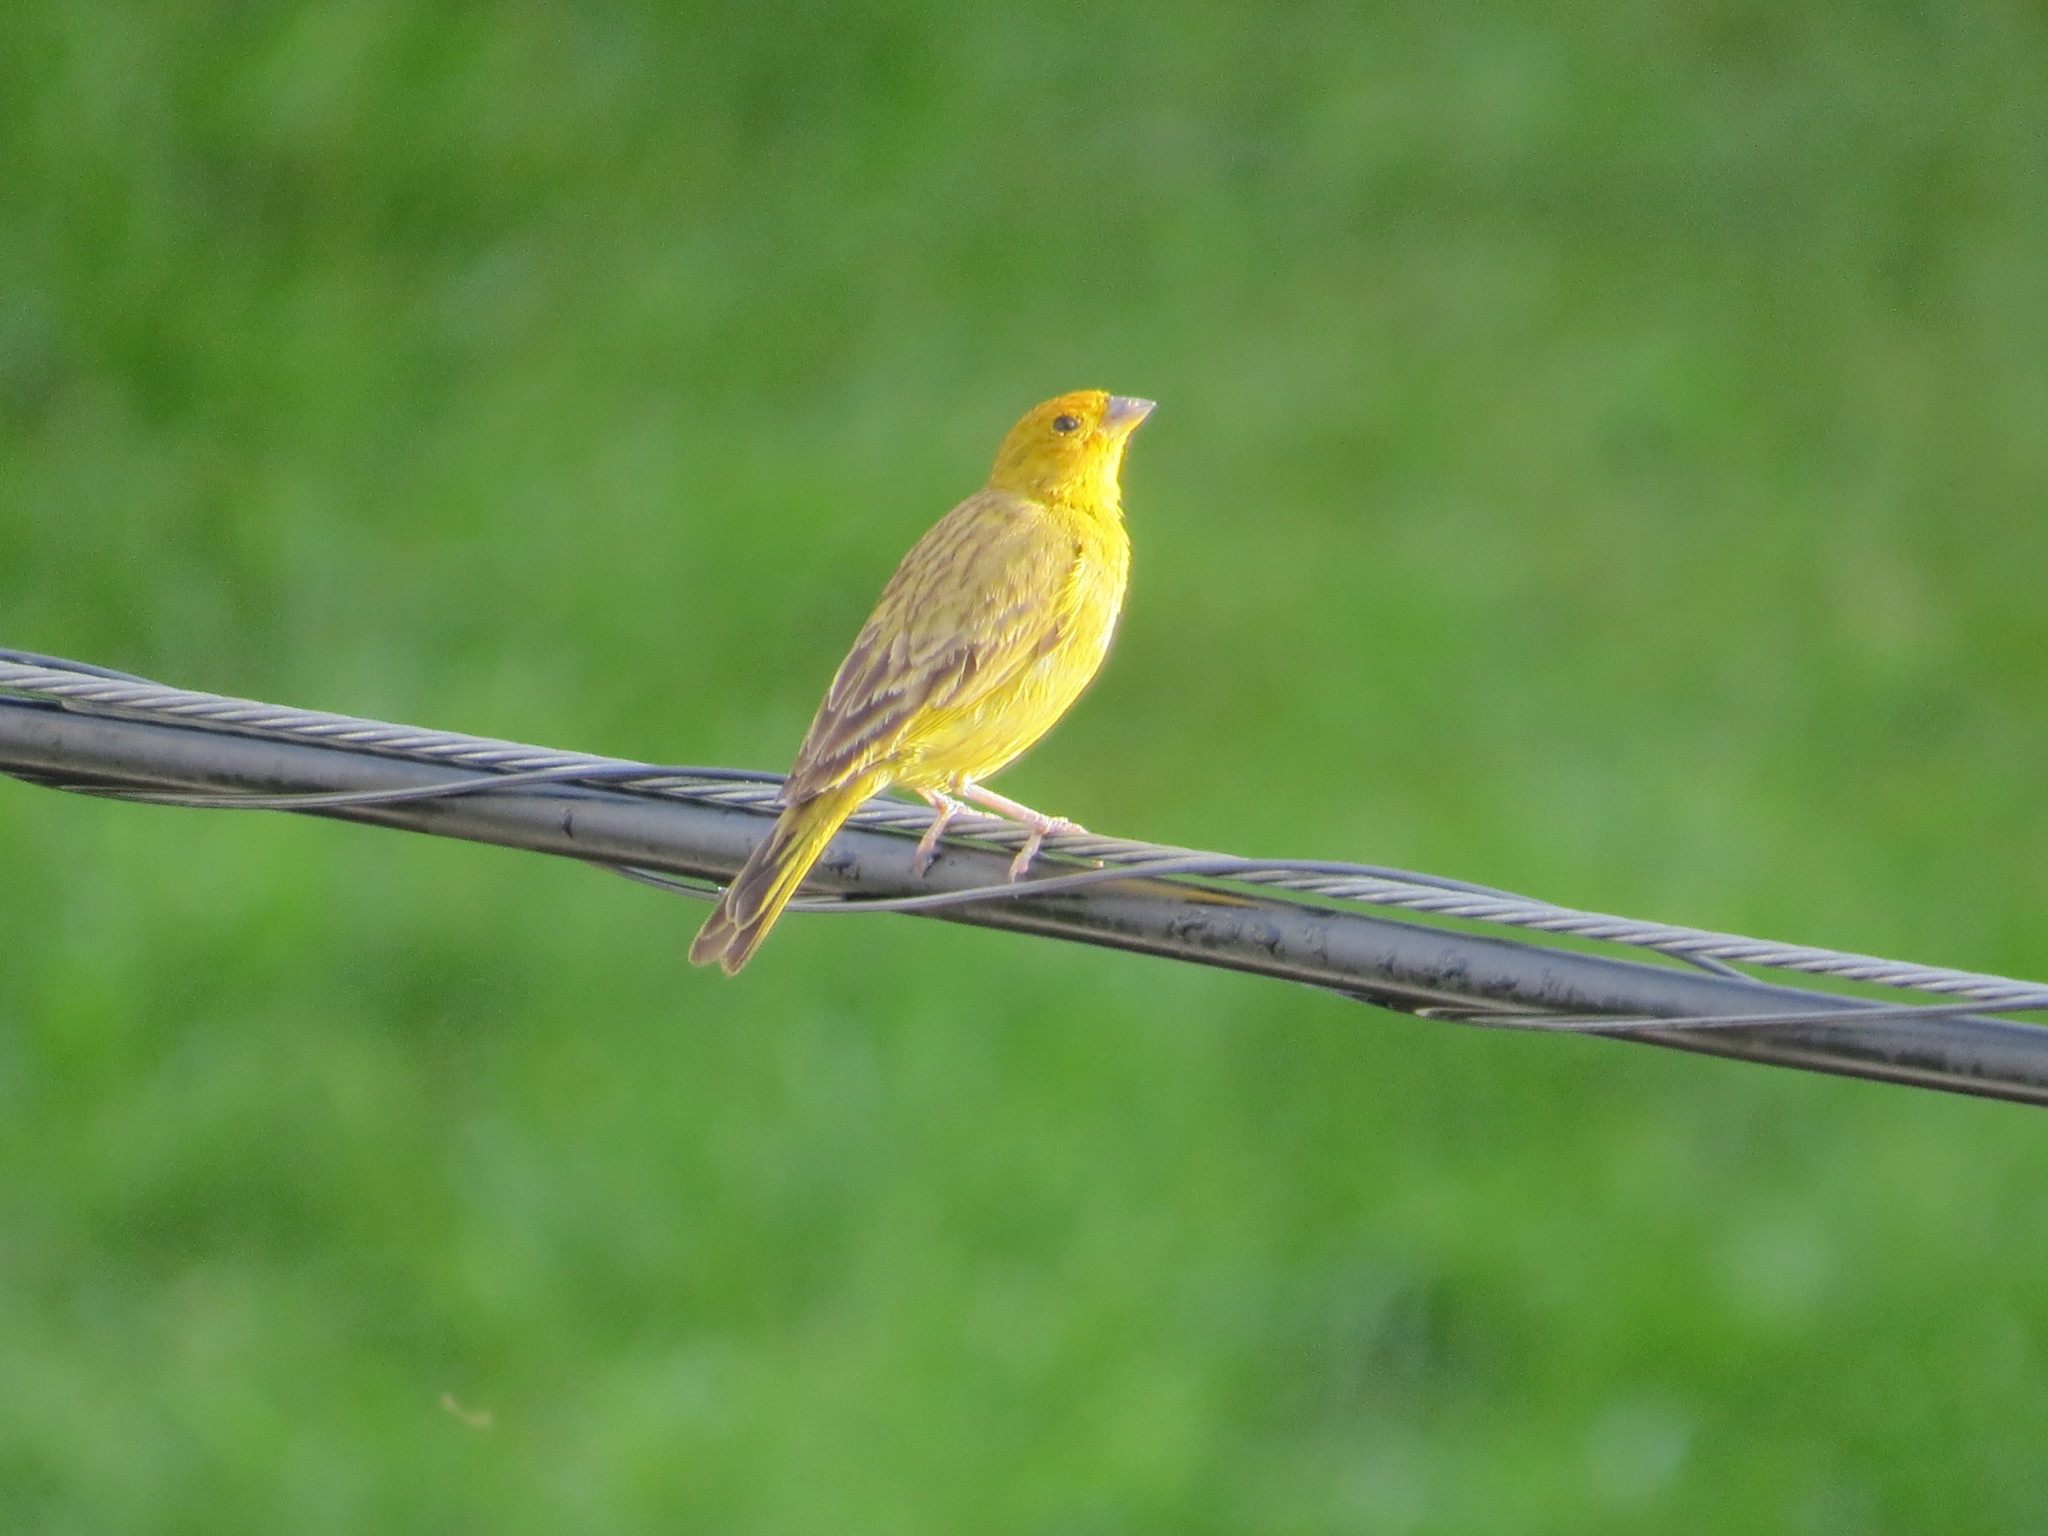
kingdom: Animalia
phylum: Chordata
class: Aves
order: Passeriformes
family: Thraupidae
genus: Sicalis
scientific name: Sicalis flaveola
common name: Saffron finch
